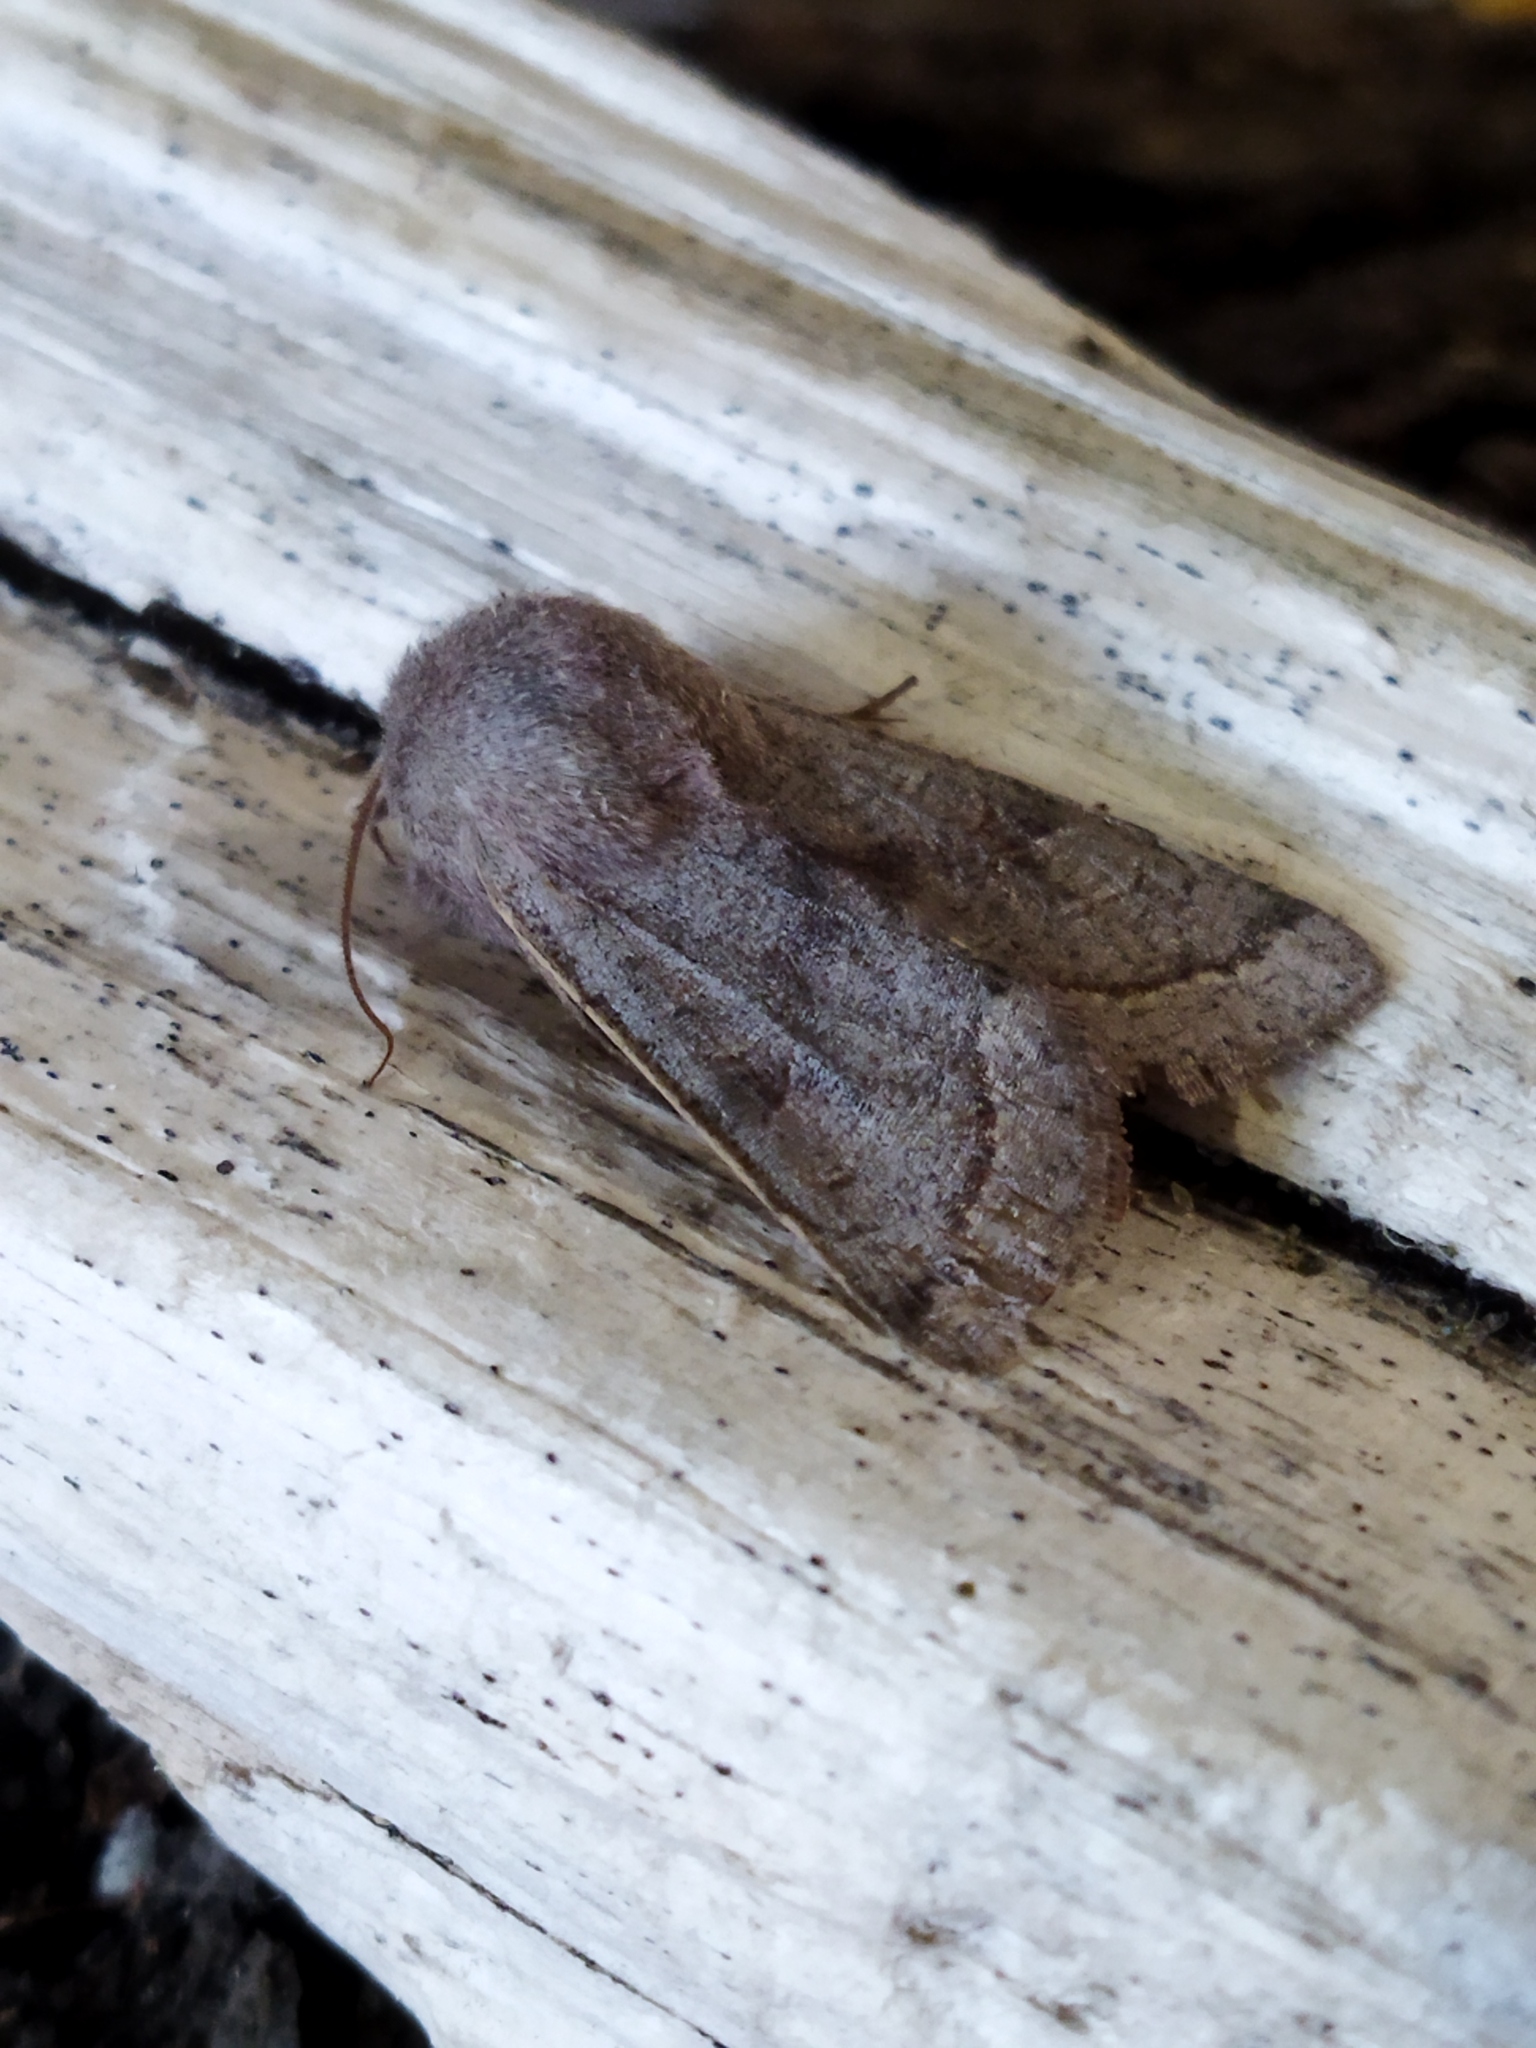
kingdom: Animalia
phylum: Arthropoda
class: Insecta
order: Lepidoptera
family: Noctuidae
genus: Orthosia
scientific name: Orthosia opima
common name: Northern drab
